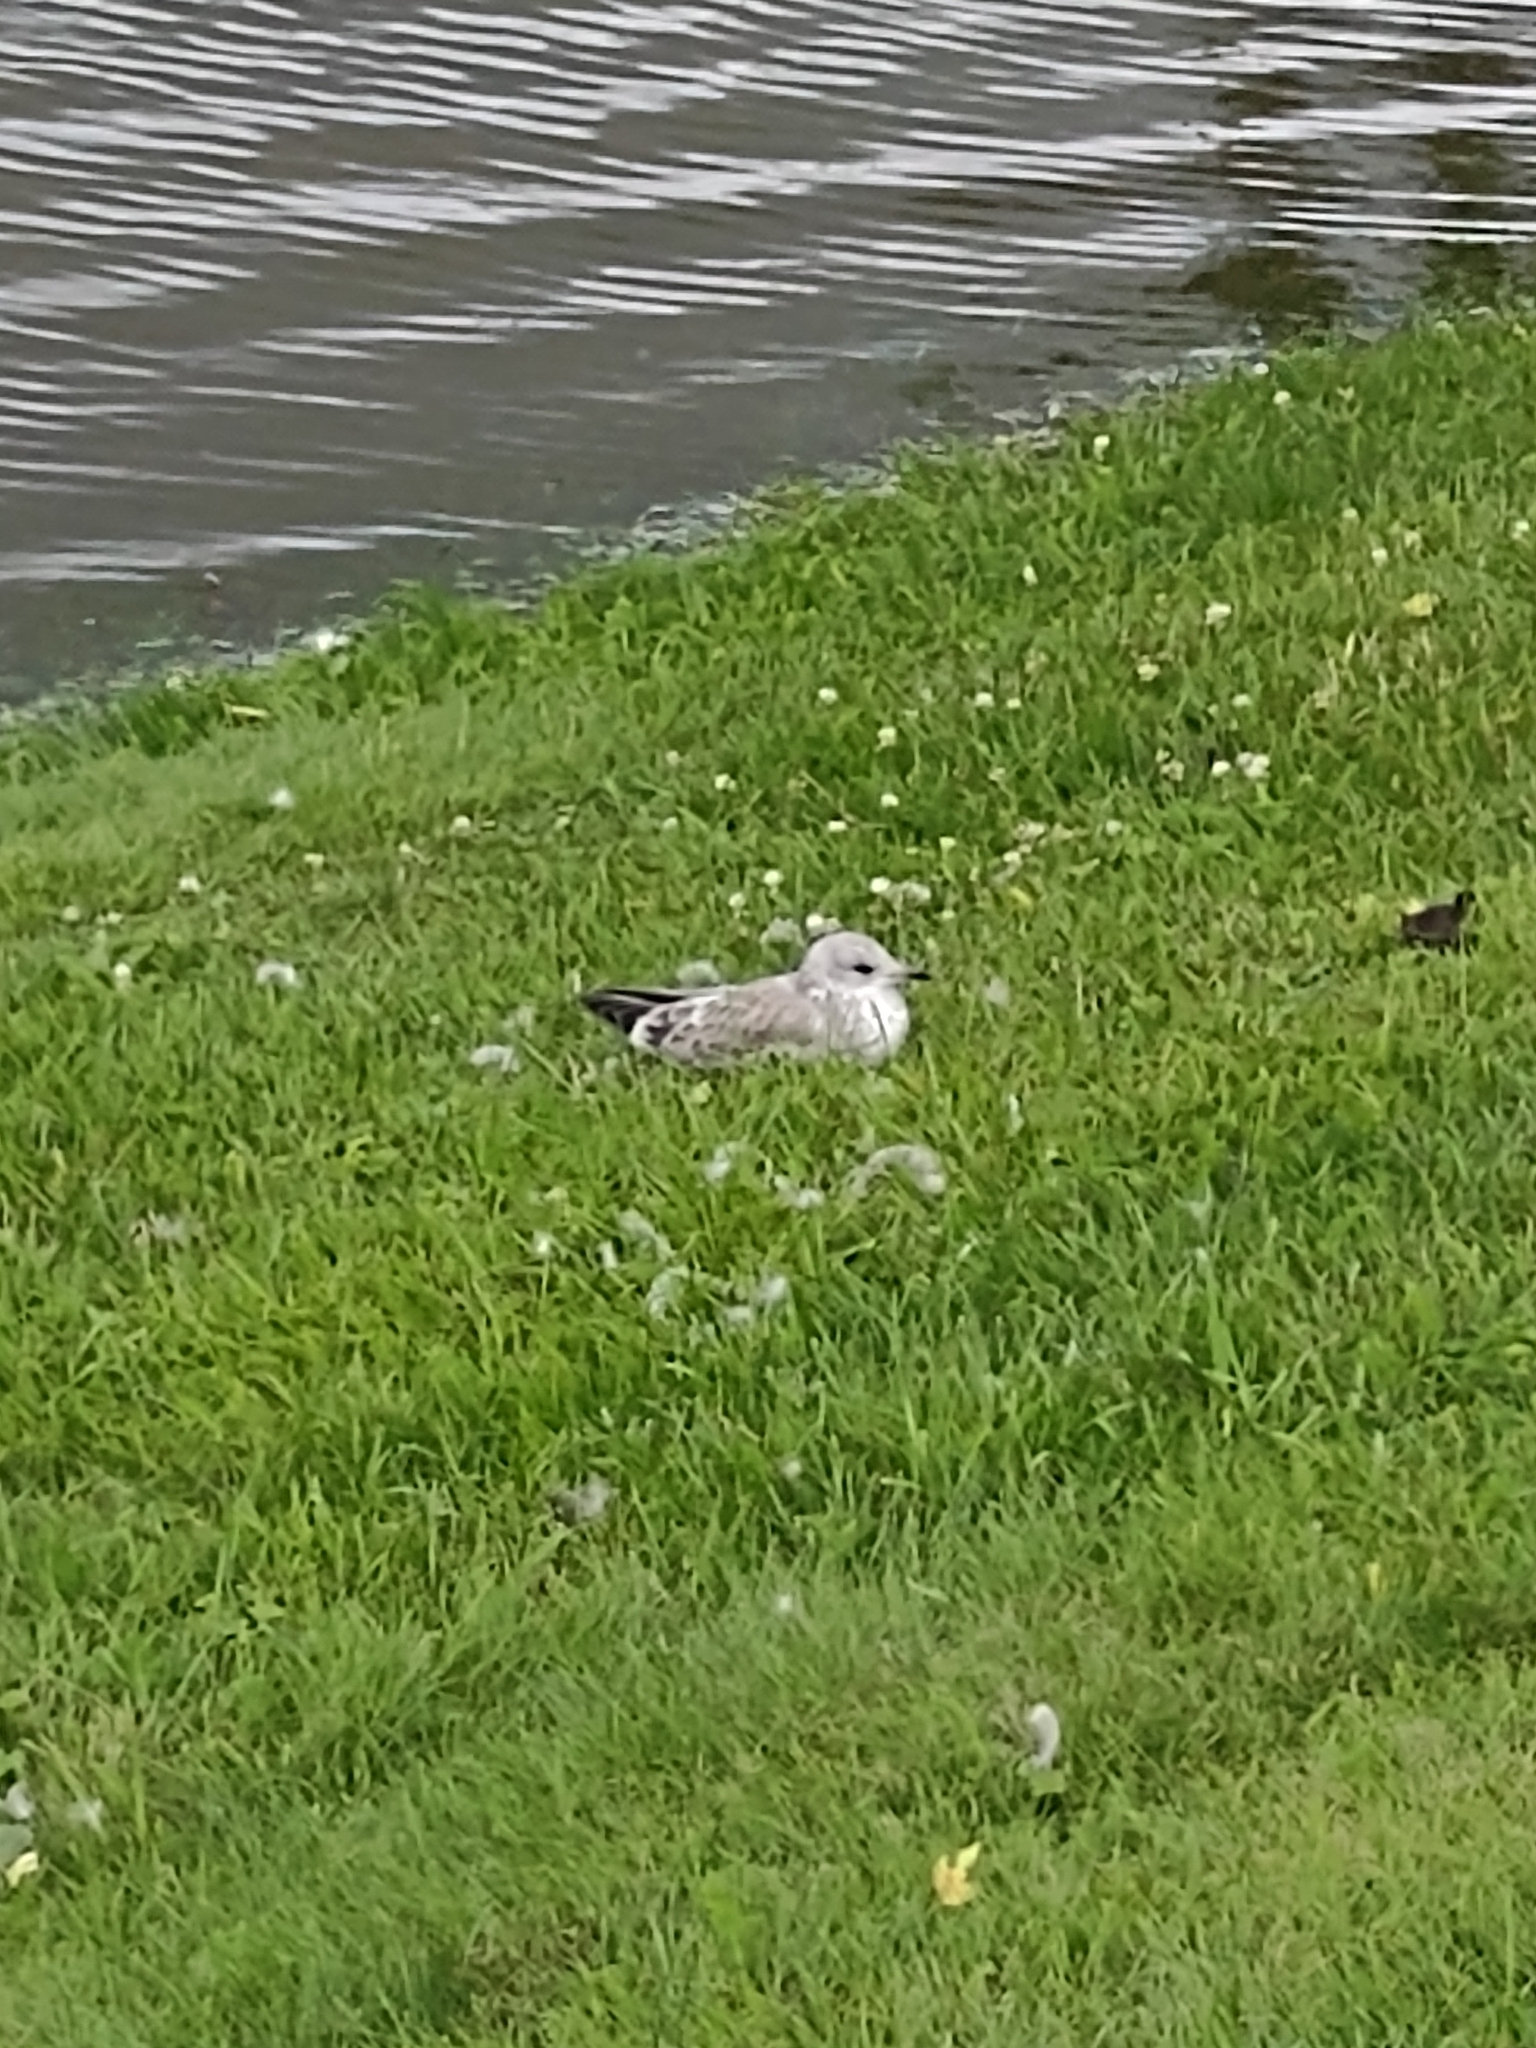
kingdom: Animalia
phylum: Chordata
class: Aves
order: Charadriiformes
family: Laridae
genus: Larus
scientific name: Larus canus
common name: Mew gull
